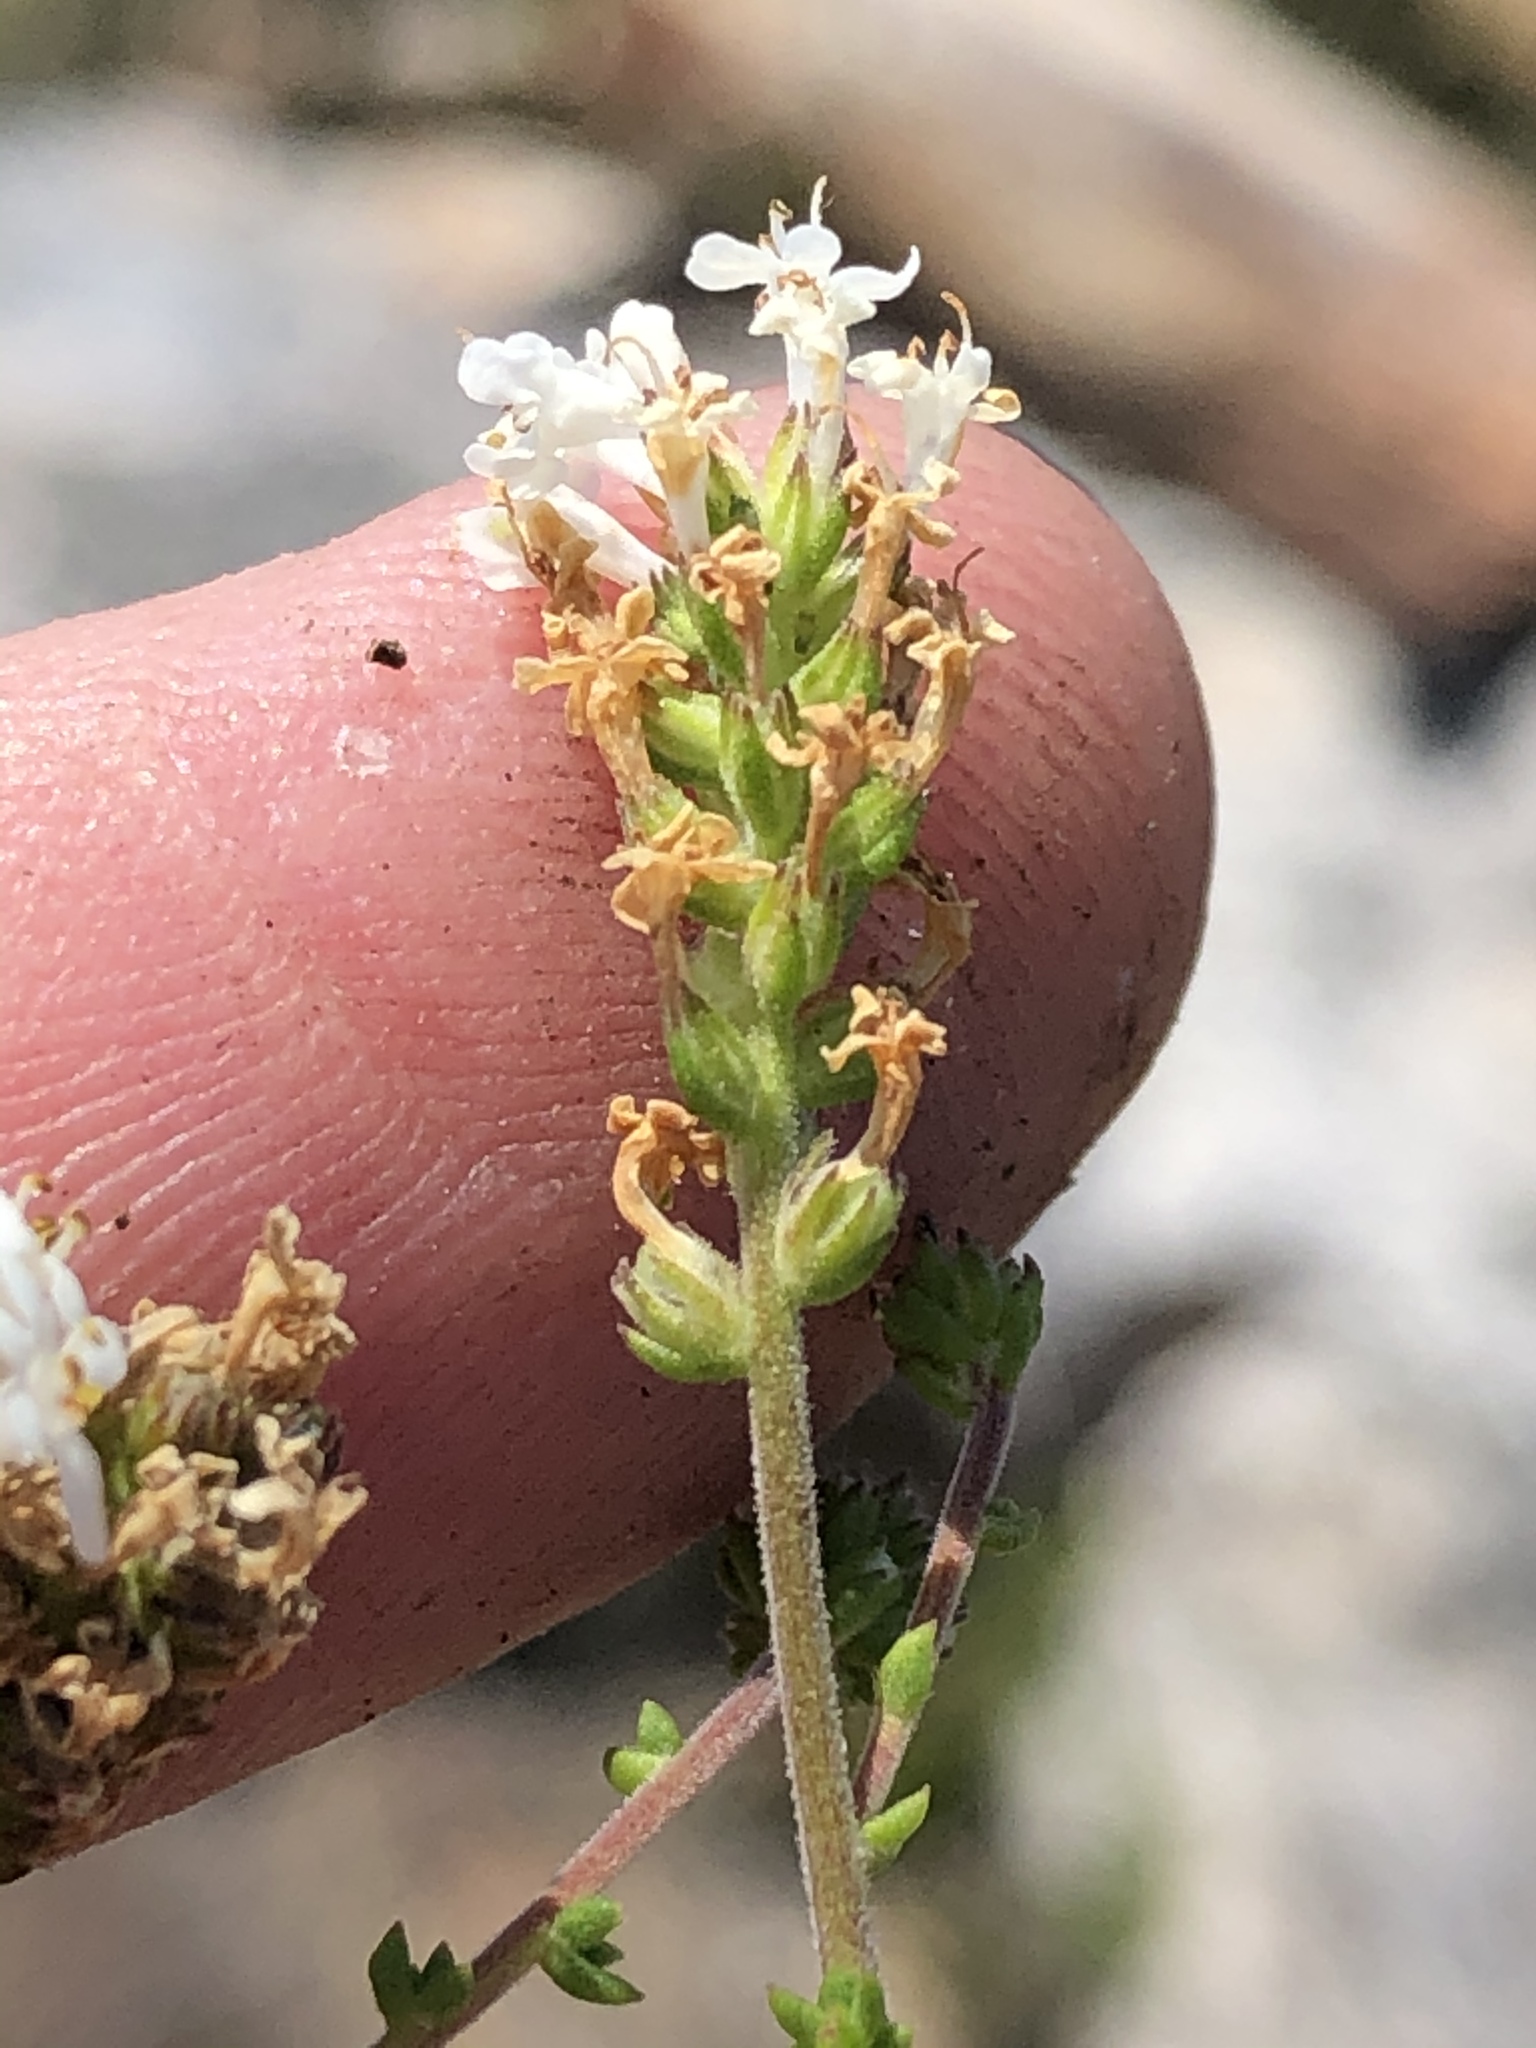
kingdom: Plantae
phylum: Tracheophyta
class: Magnoliopsida
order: Lamiales
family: Scrophulariaceae
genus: Selago
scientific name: Selago brevifolia
